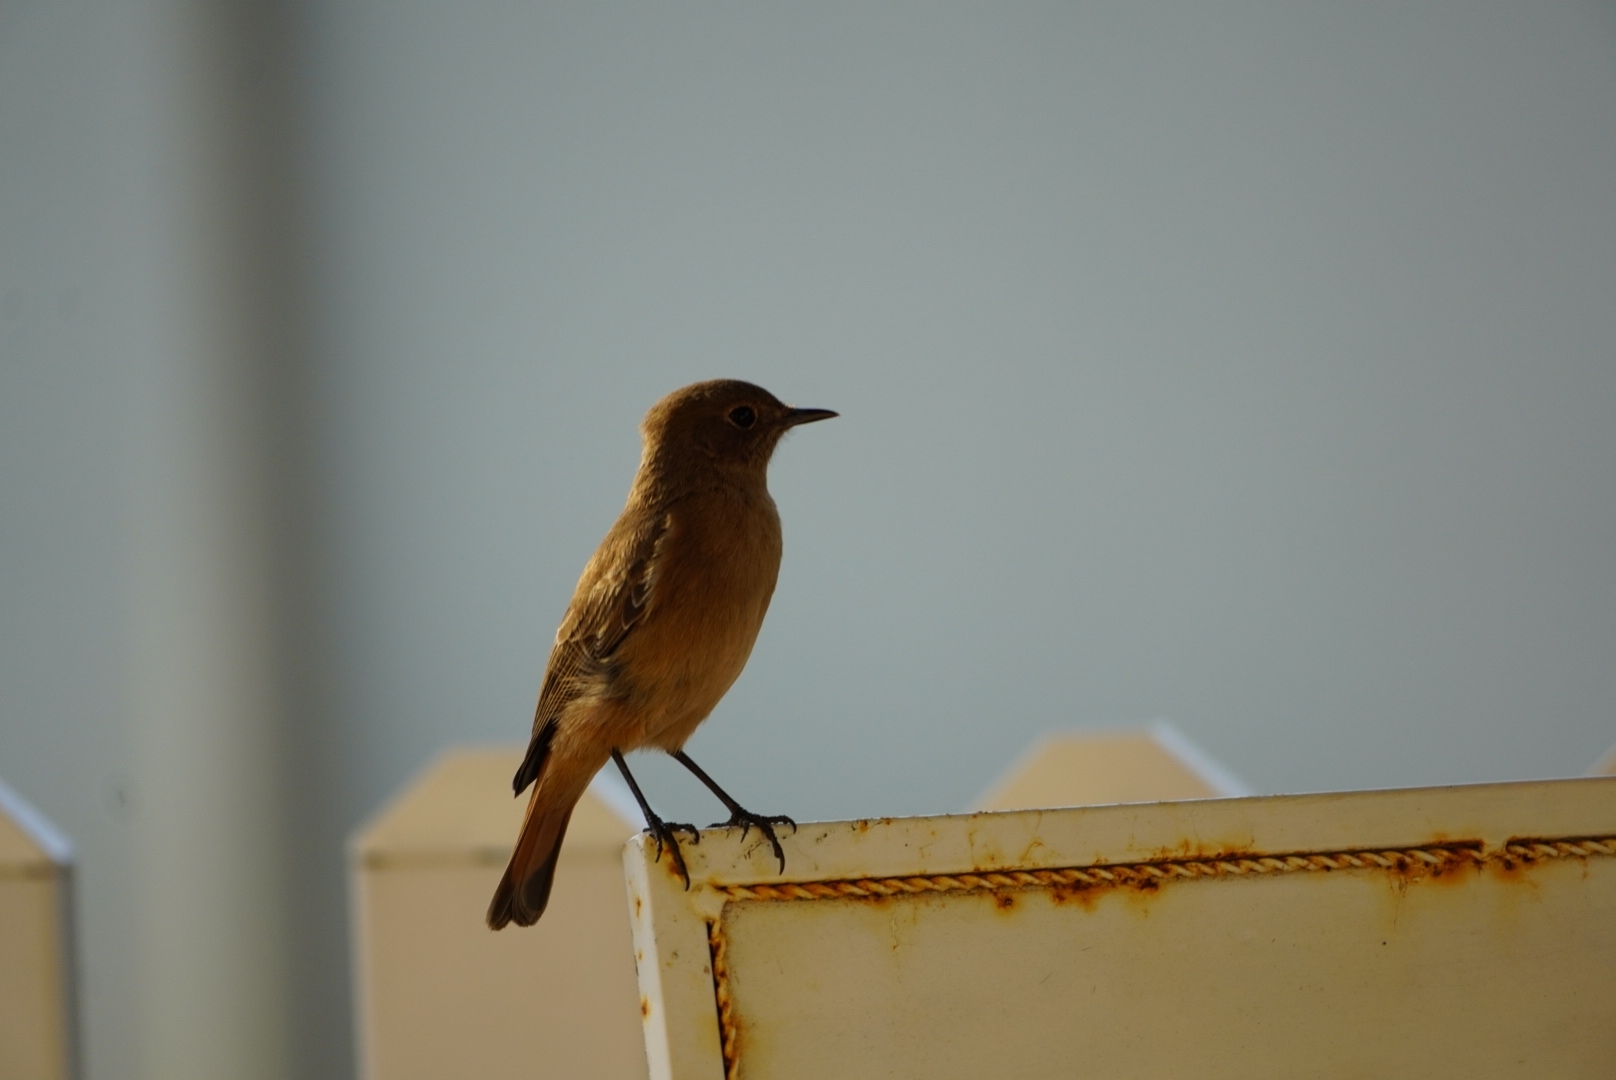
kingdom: Animalia
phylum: Chordata
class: Aves
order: Passeriformes
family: Muscicapidae
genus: Oenanthe
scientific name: Oenanthe familiaris
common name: Familiar chat
